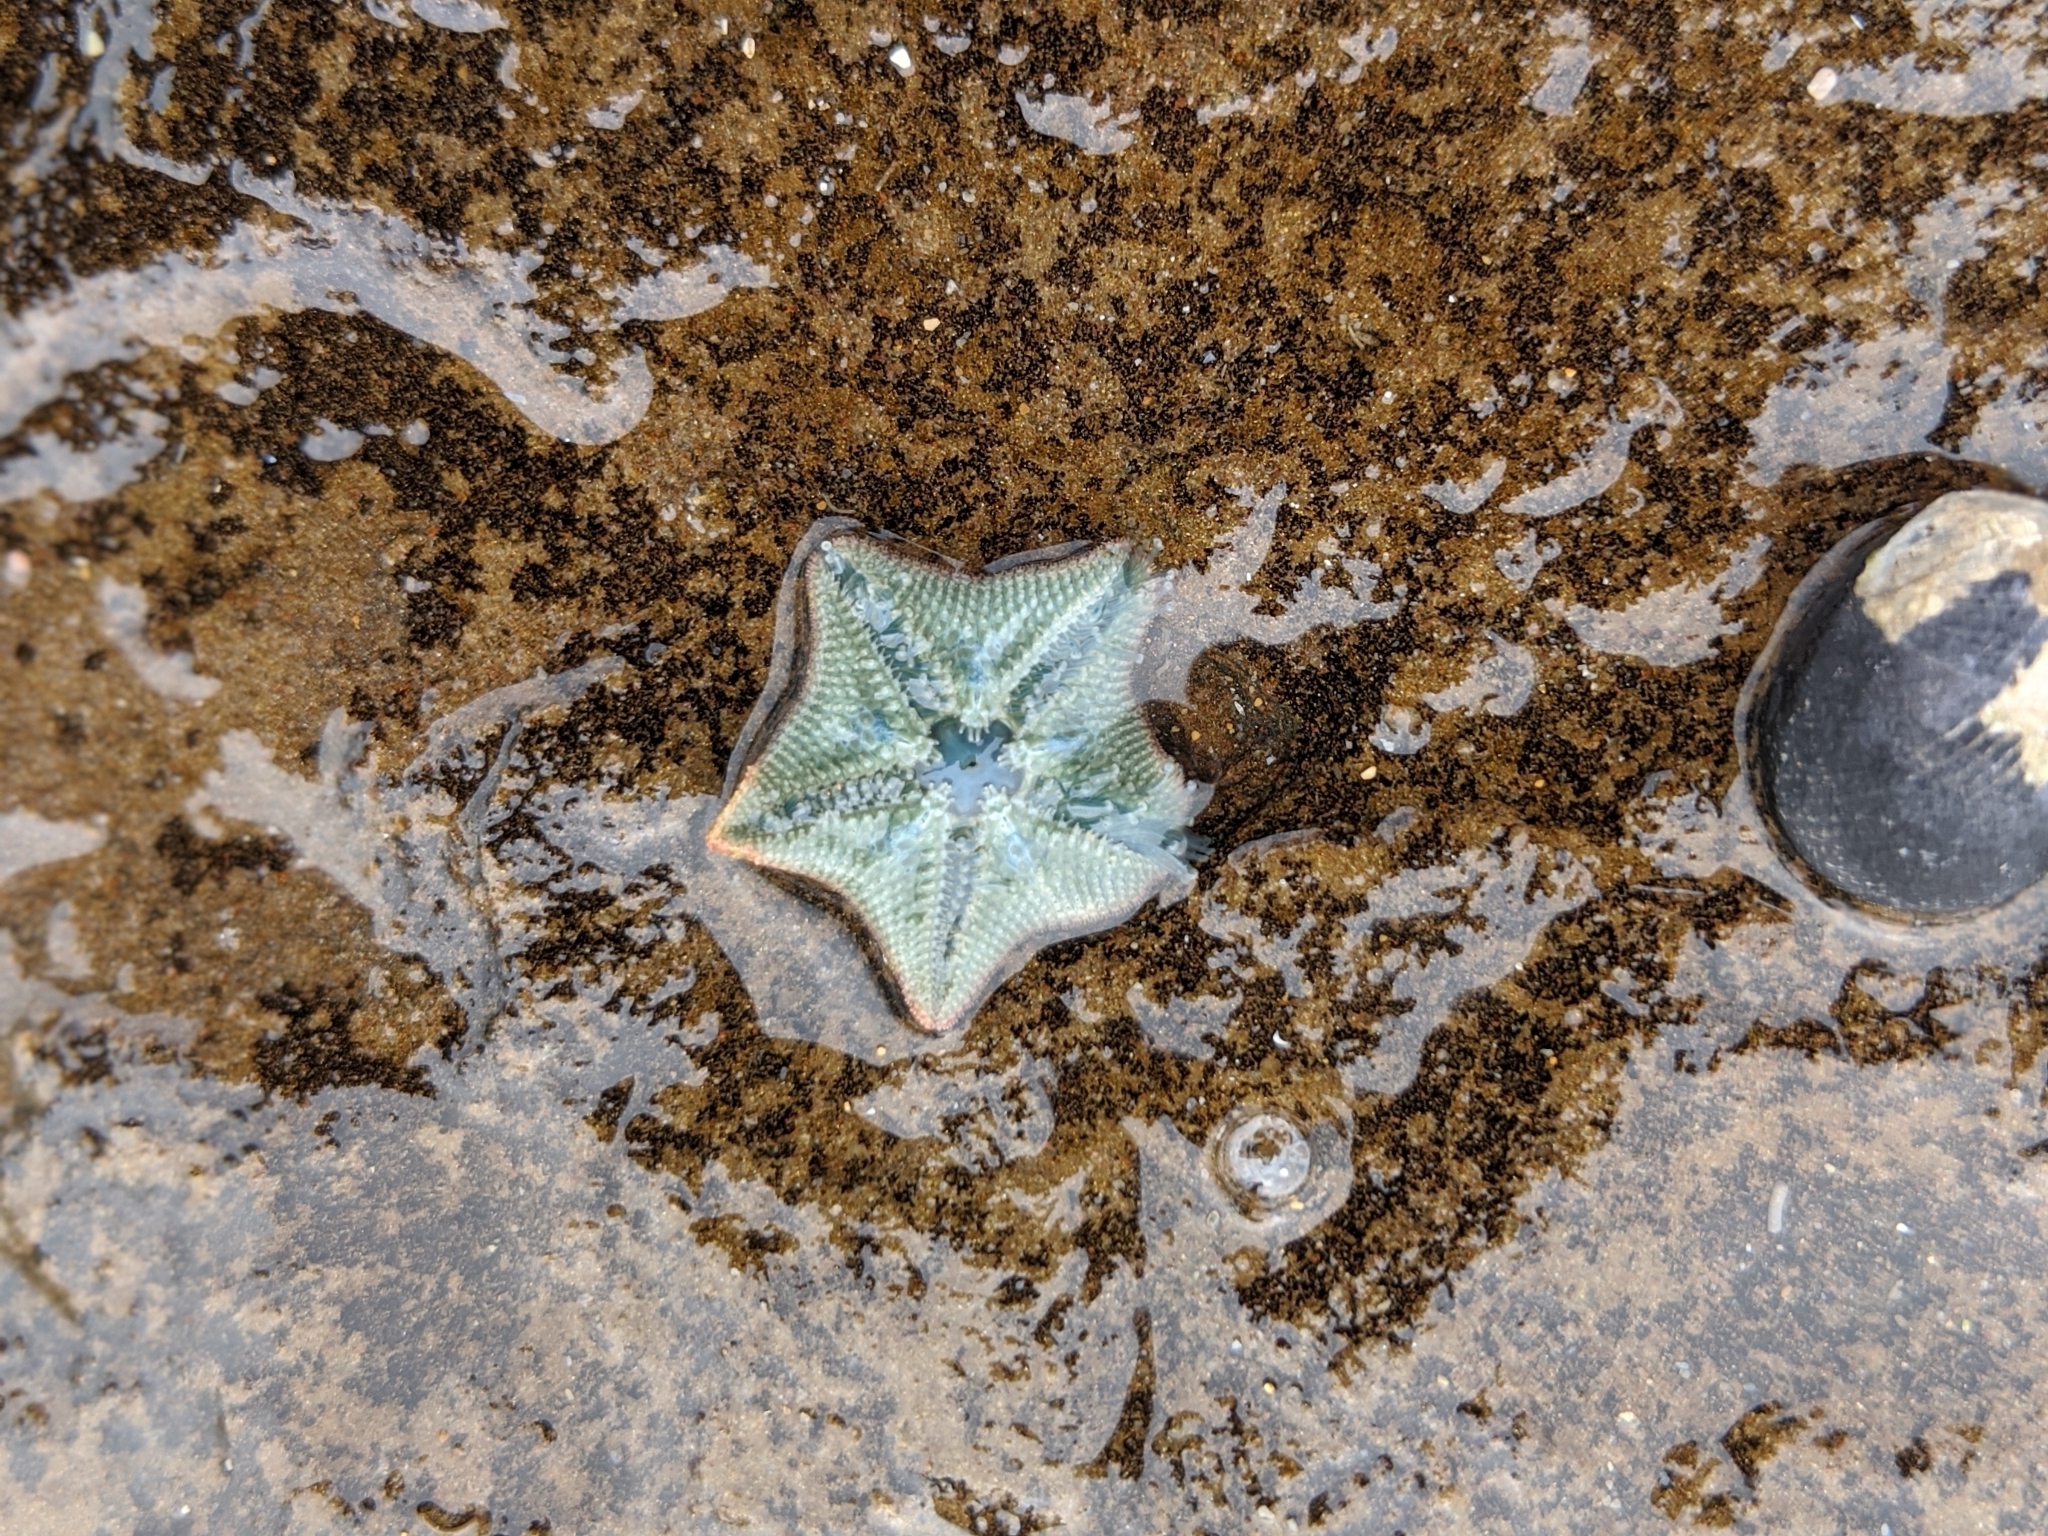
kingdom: Animalia
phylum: Echinodermata
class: Asteroidea
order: Valvatida
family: Asterinidae
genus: Parvulastra
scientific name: Parvulastra exigua
